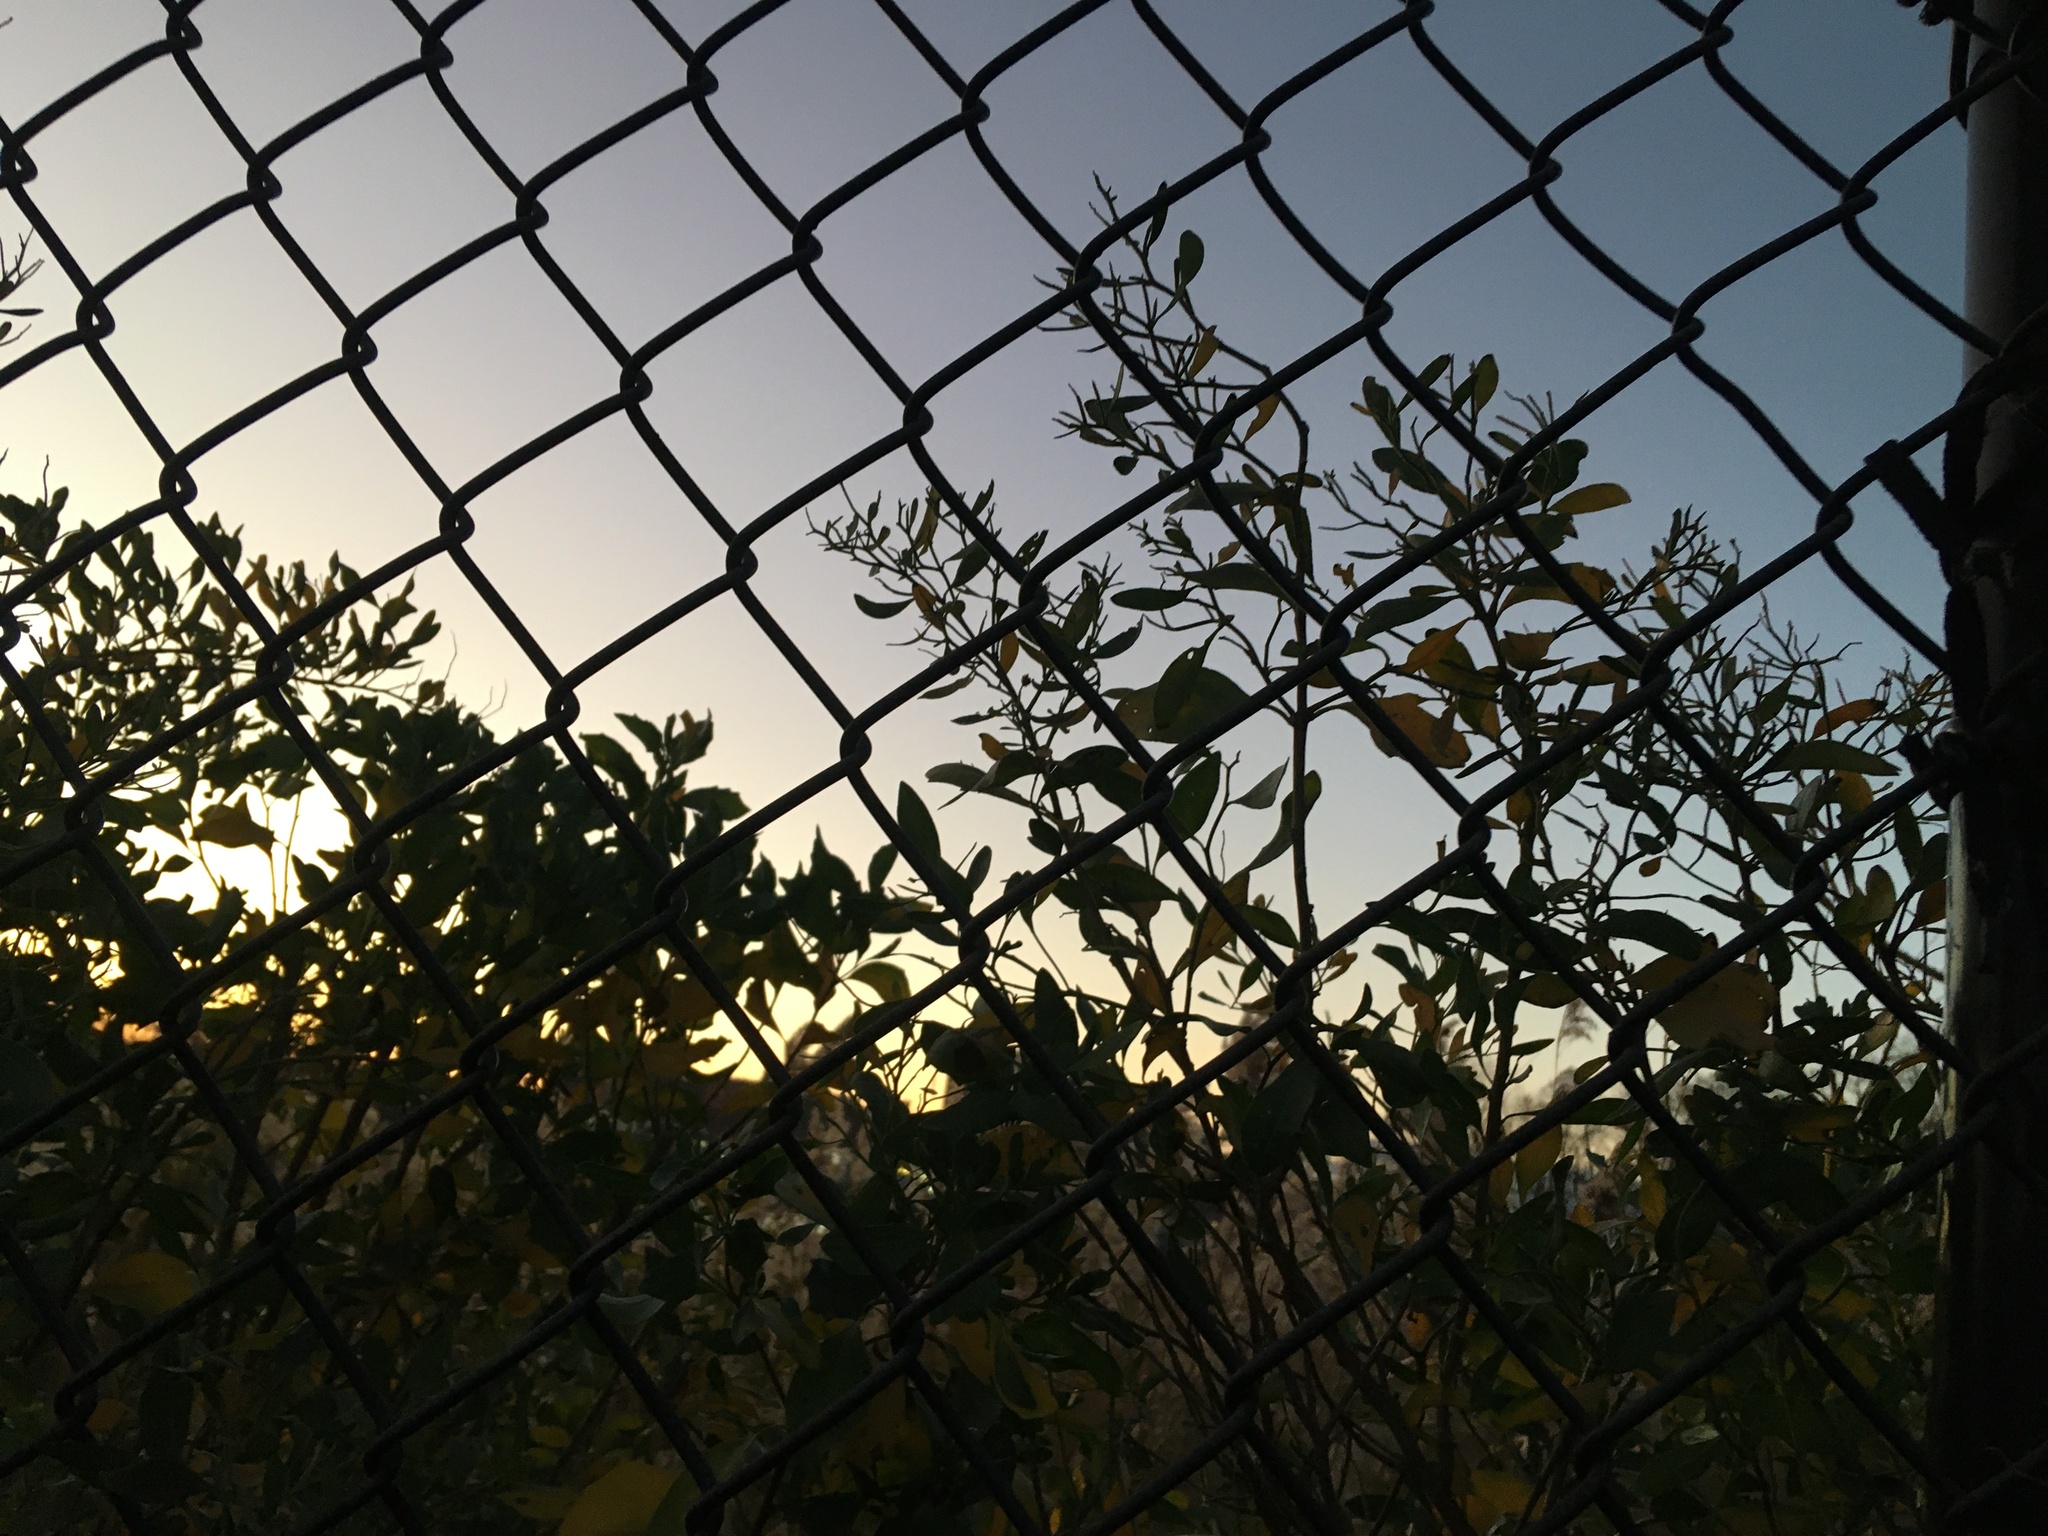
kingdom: Plantae
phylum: Tracheophyta
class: Magnoliopsida
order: Asterales
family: Asteraceae
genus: Baccharis
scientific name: Baccharis halimifolia
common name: Eastern baccharis
